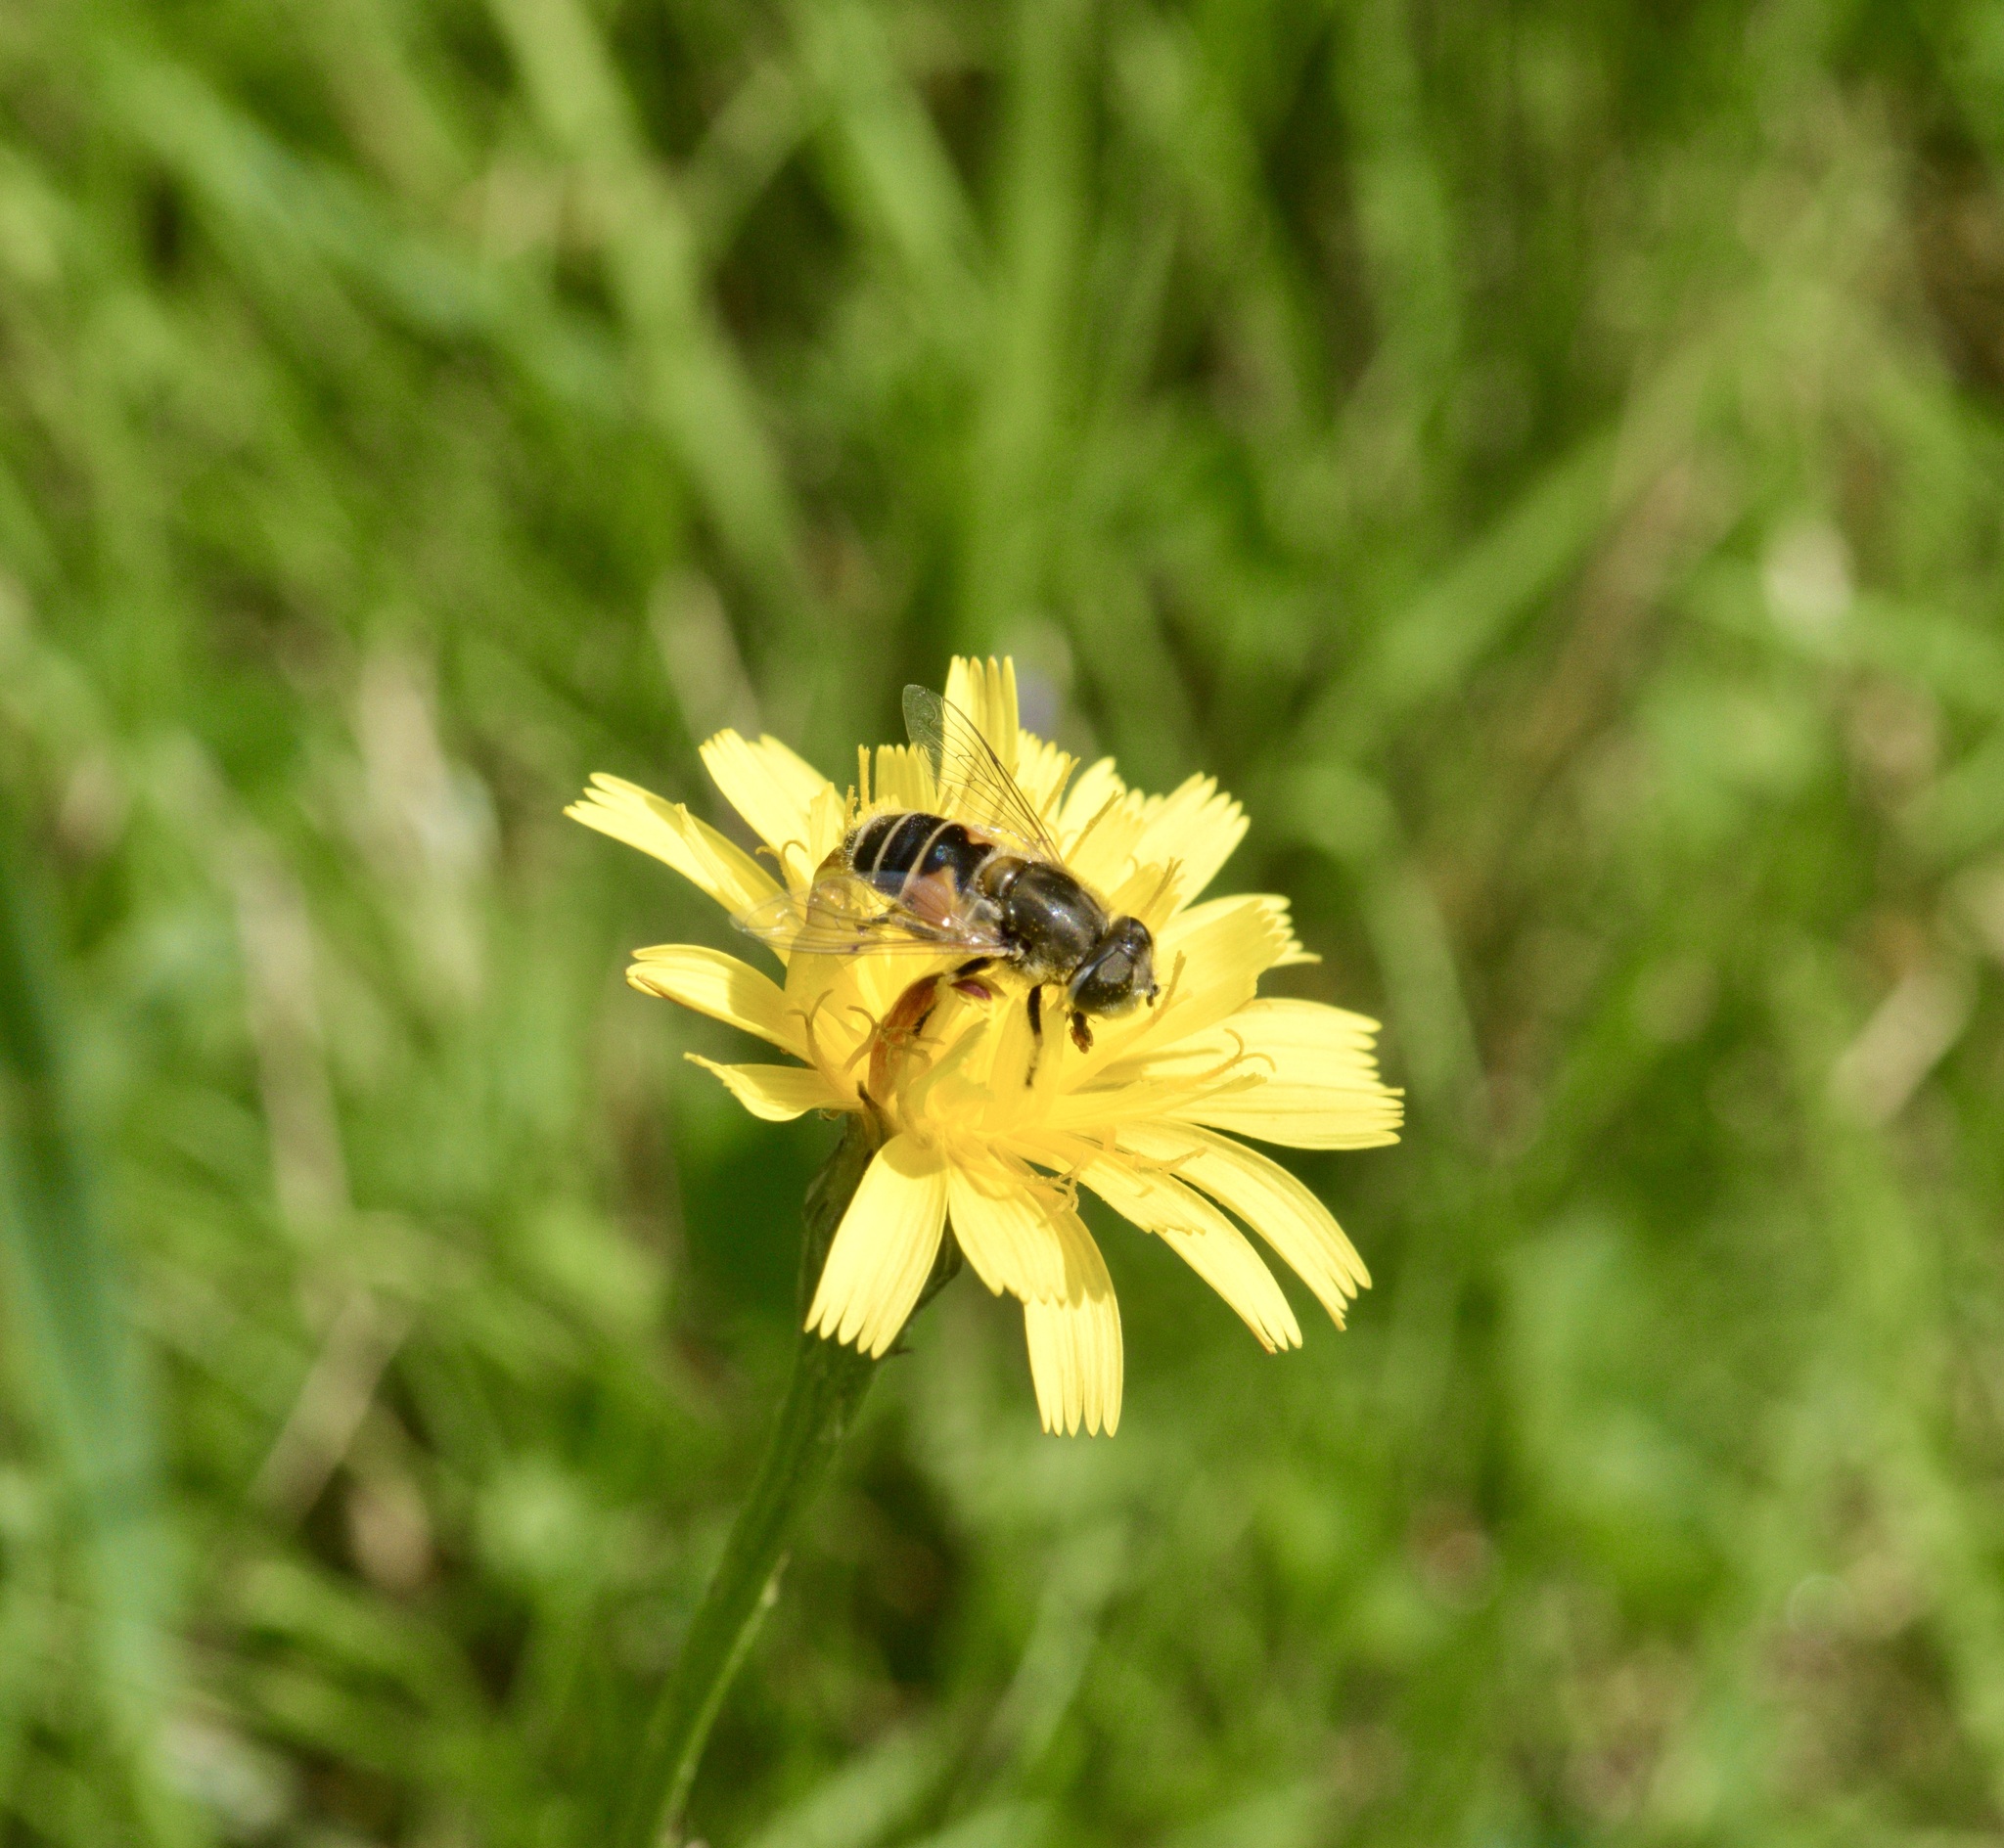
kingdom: Animalia
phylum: Arthropoda
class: Insecta
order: Diptera
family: Syrphidae
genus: Eristalis
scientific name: Eristalis arbustorum
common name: Hover fly
